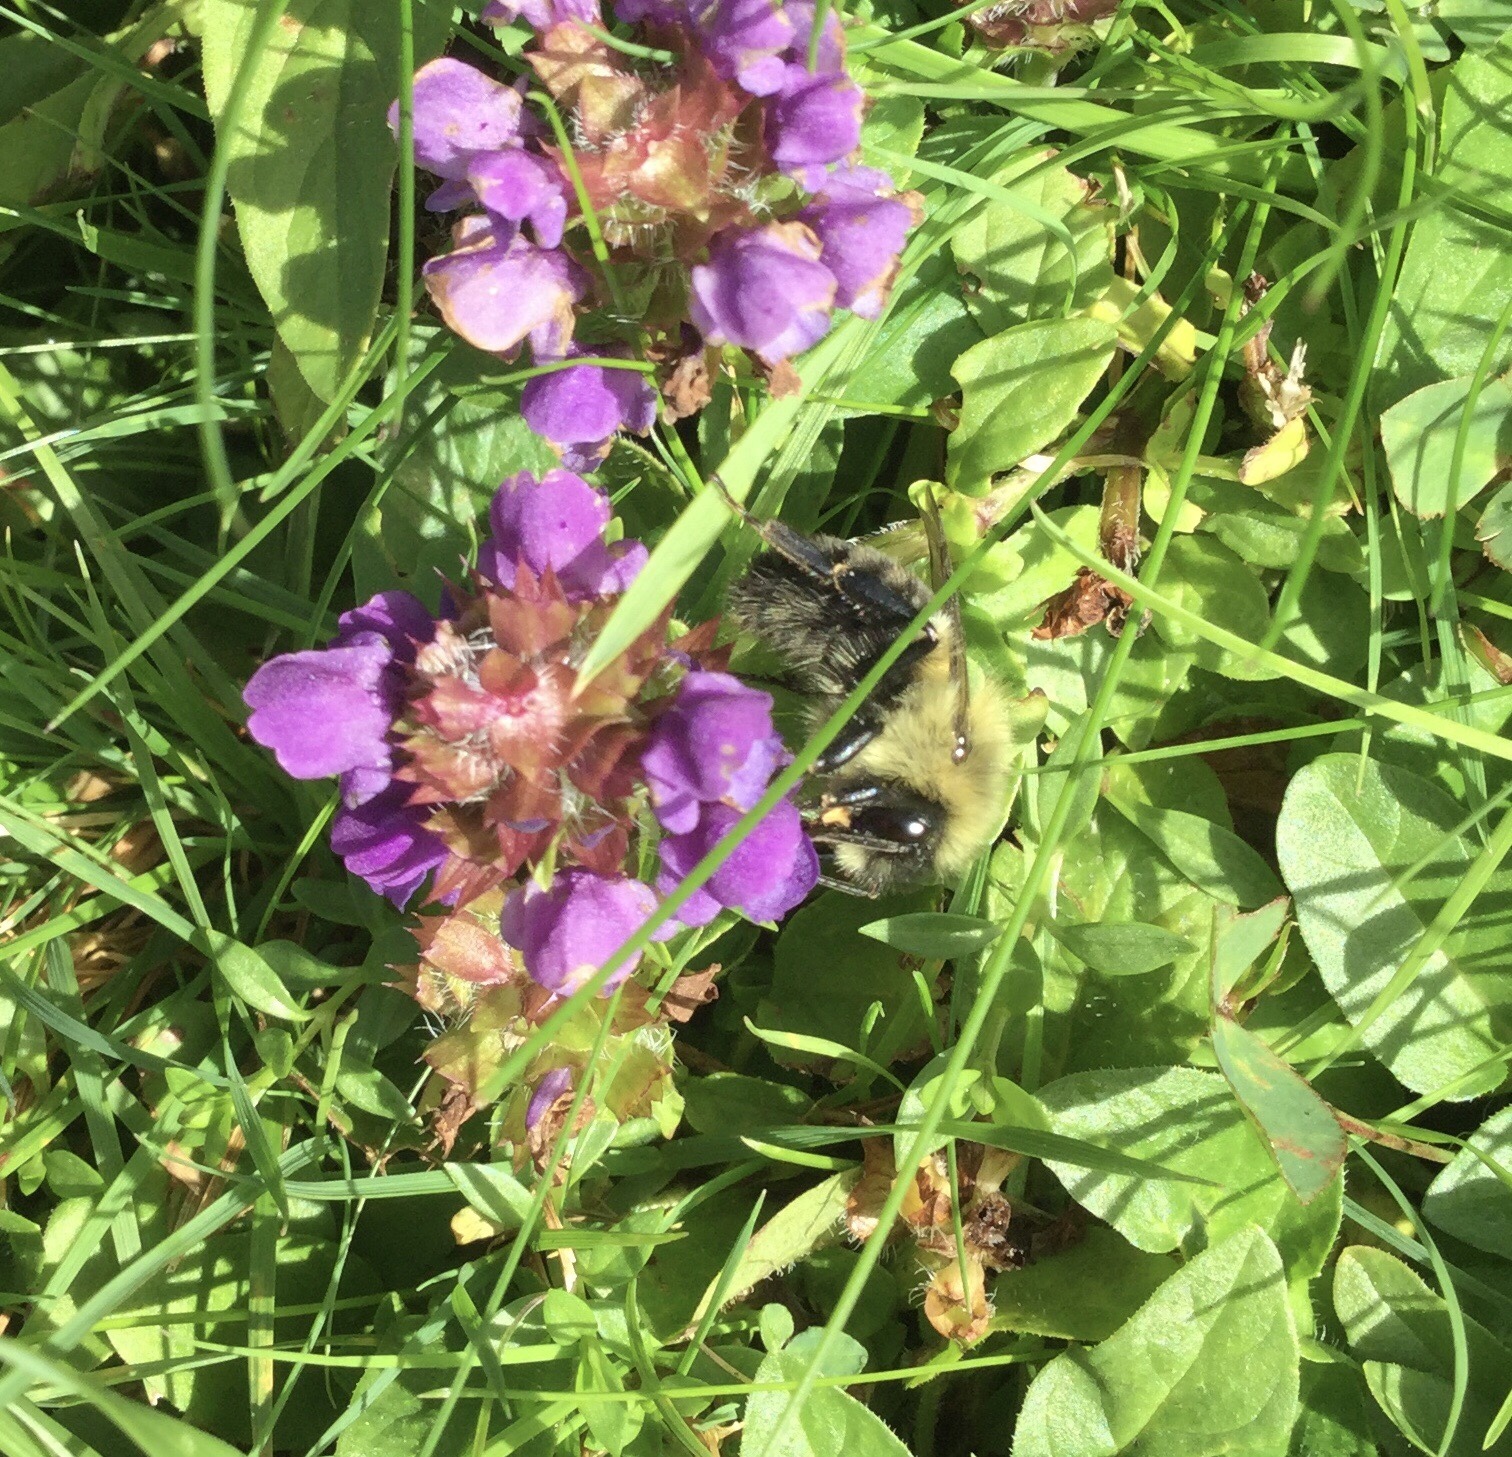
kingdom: Animalia
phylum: Arthropoda
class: Insecta
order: Hymenoptera
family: Apidae
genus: Bombus
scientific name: Bombus impatiens
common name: Common eastern bumble bee
